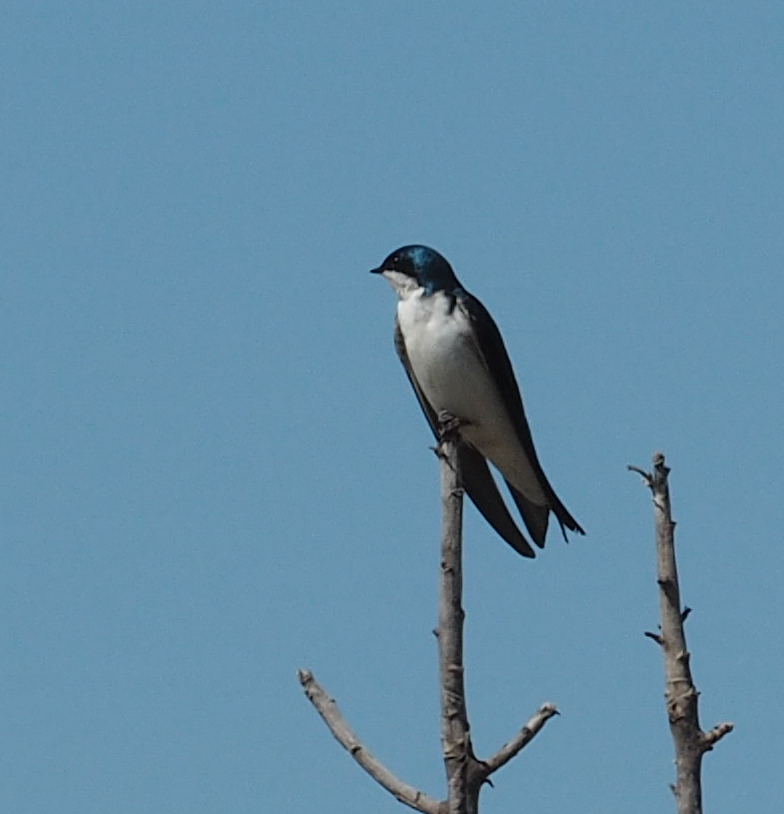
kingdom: Animalia
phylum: Chordata
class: Aves
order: Passeriformes
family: Hirundinidae
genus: Tachycineta
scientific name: Tachycineta bicolor
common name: Tree swallow
